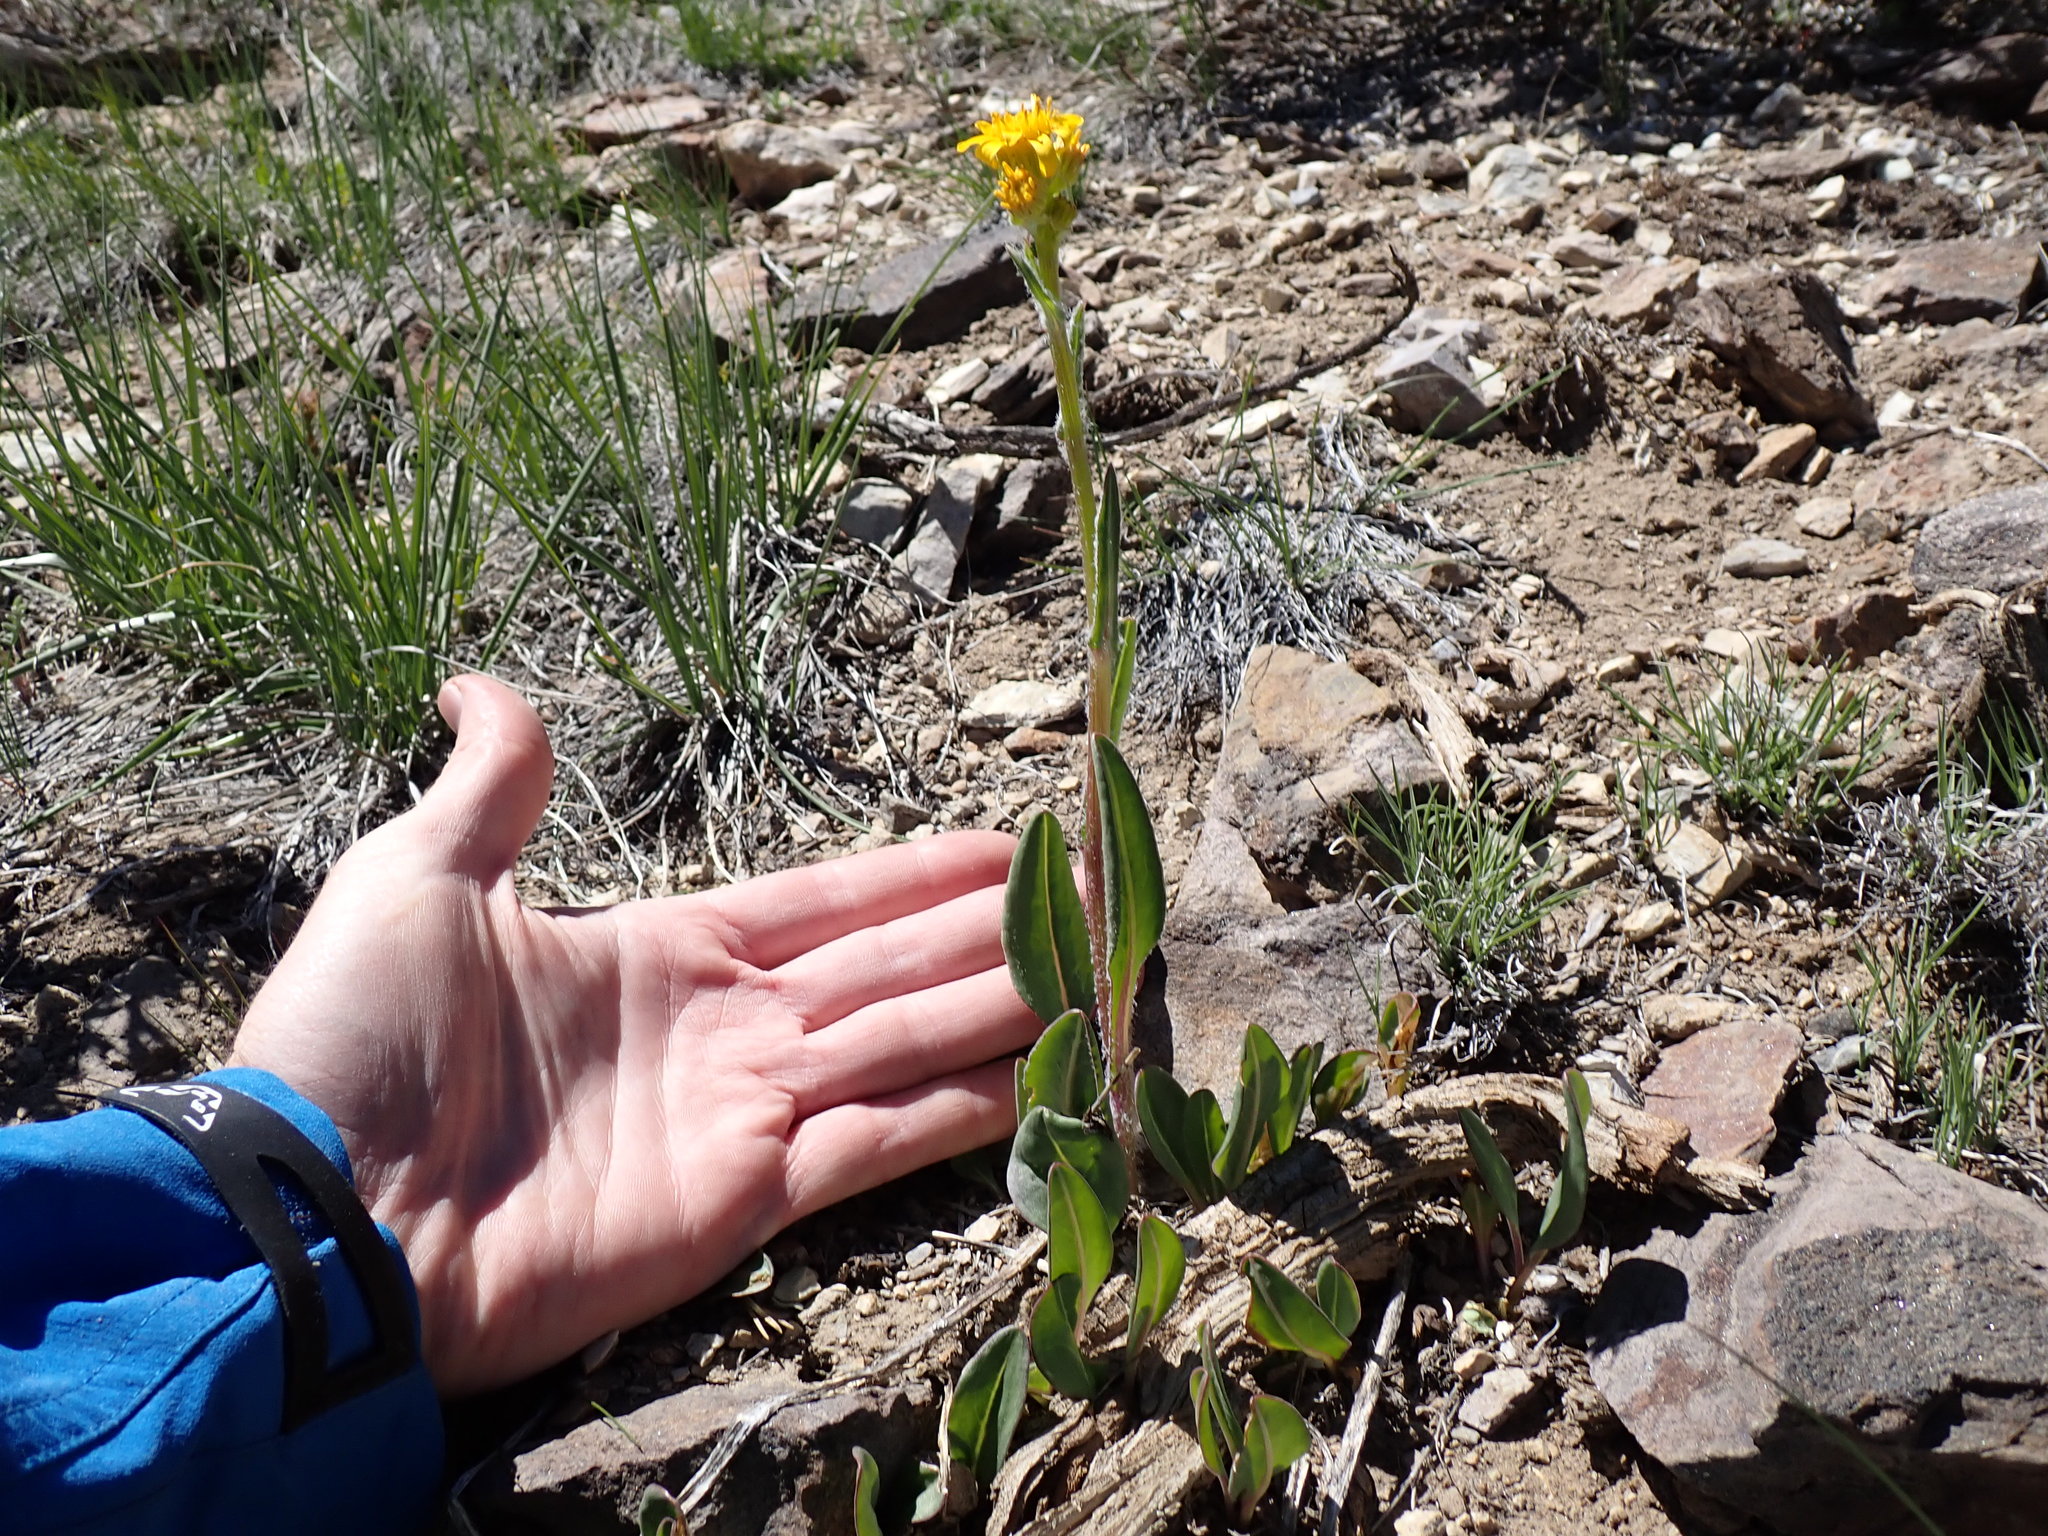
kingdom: Plantae
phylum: Tracheophyta
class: Magnoliopsida
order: Asterales
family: Asteraceae
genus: Senecio
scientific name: Senecio integerrimus
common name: Gaugeplant
